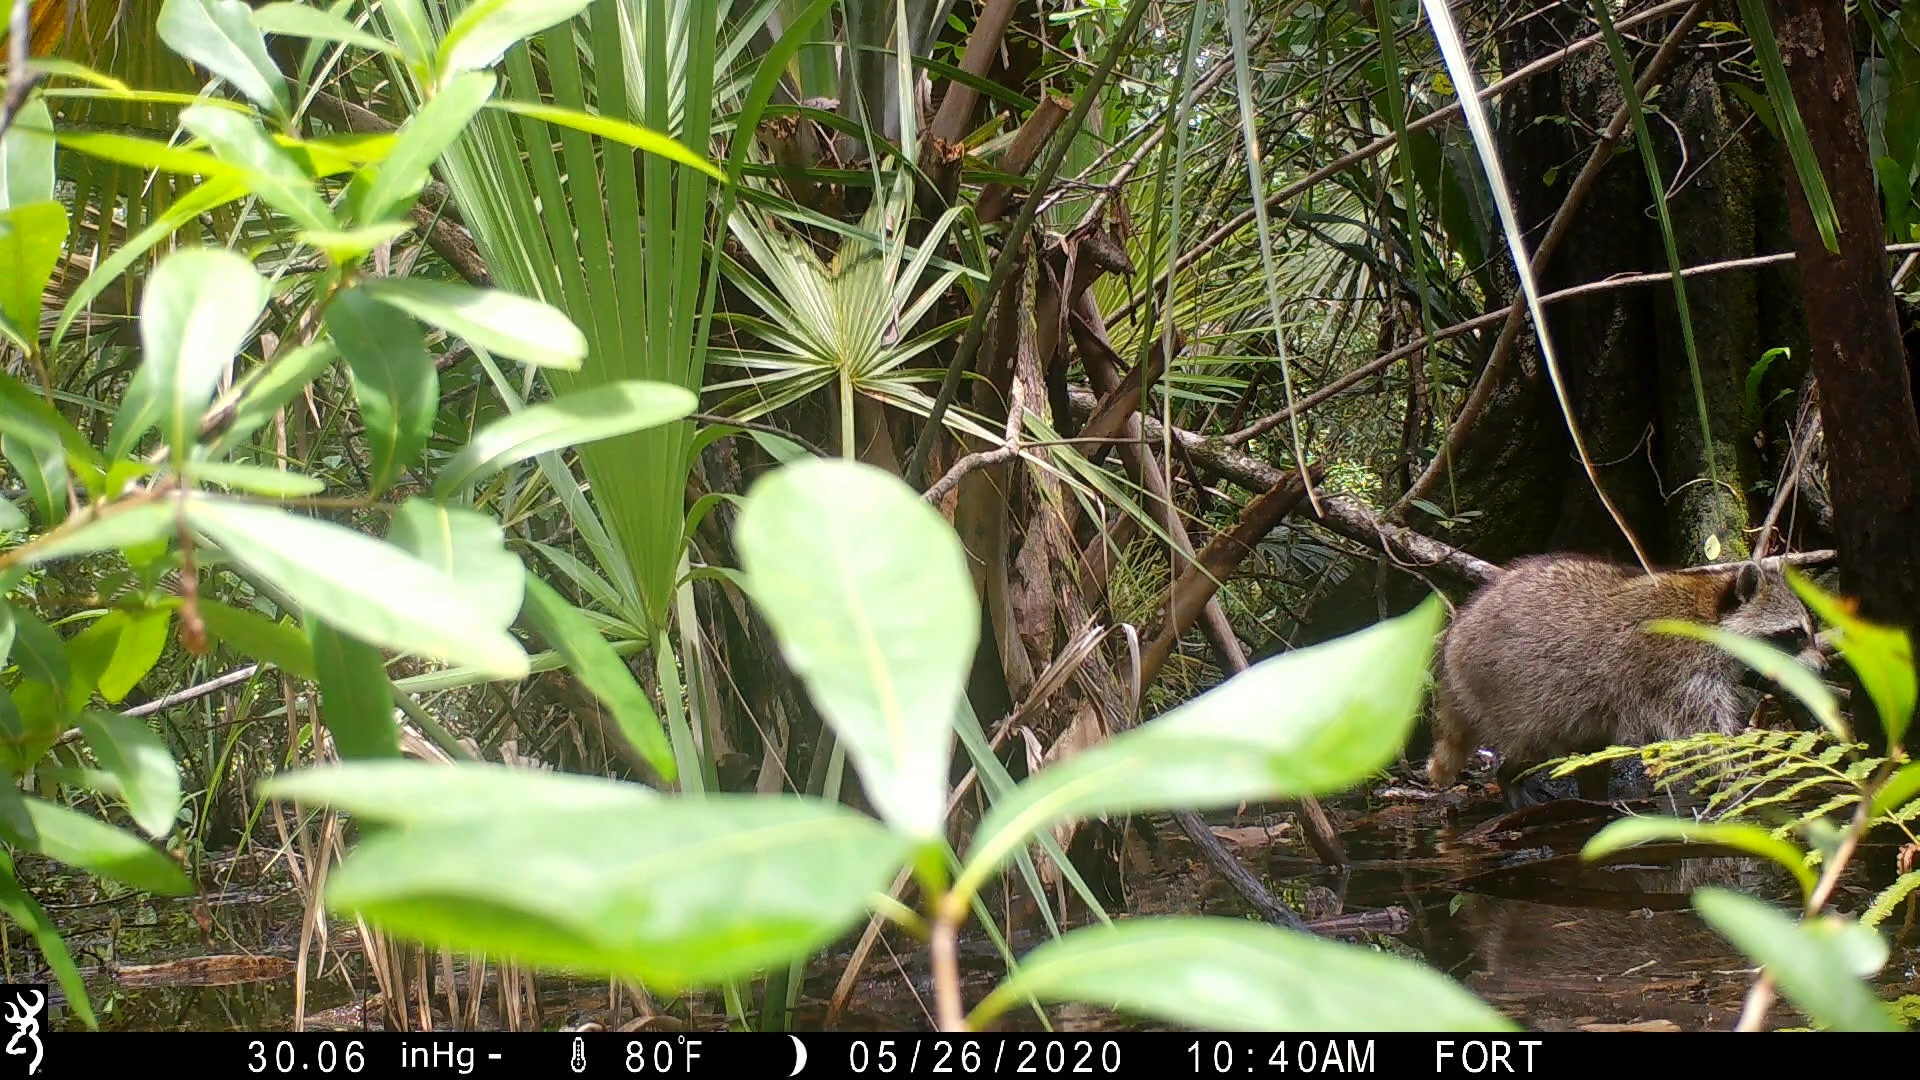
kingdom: Animalia
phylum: Chordata
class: Mammalia
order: Carnivora
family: Procyonidae
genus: Procyon
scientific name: Procyon lotor
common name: Raccoon
